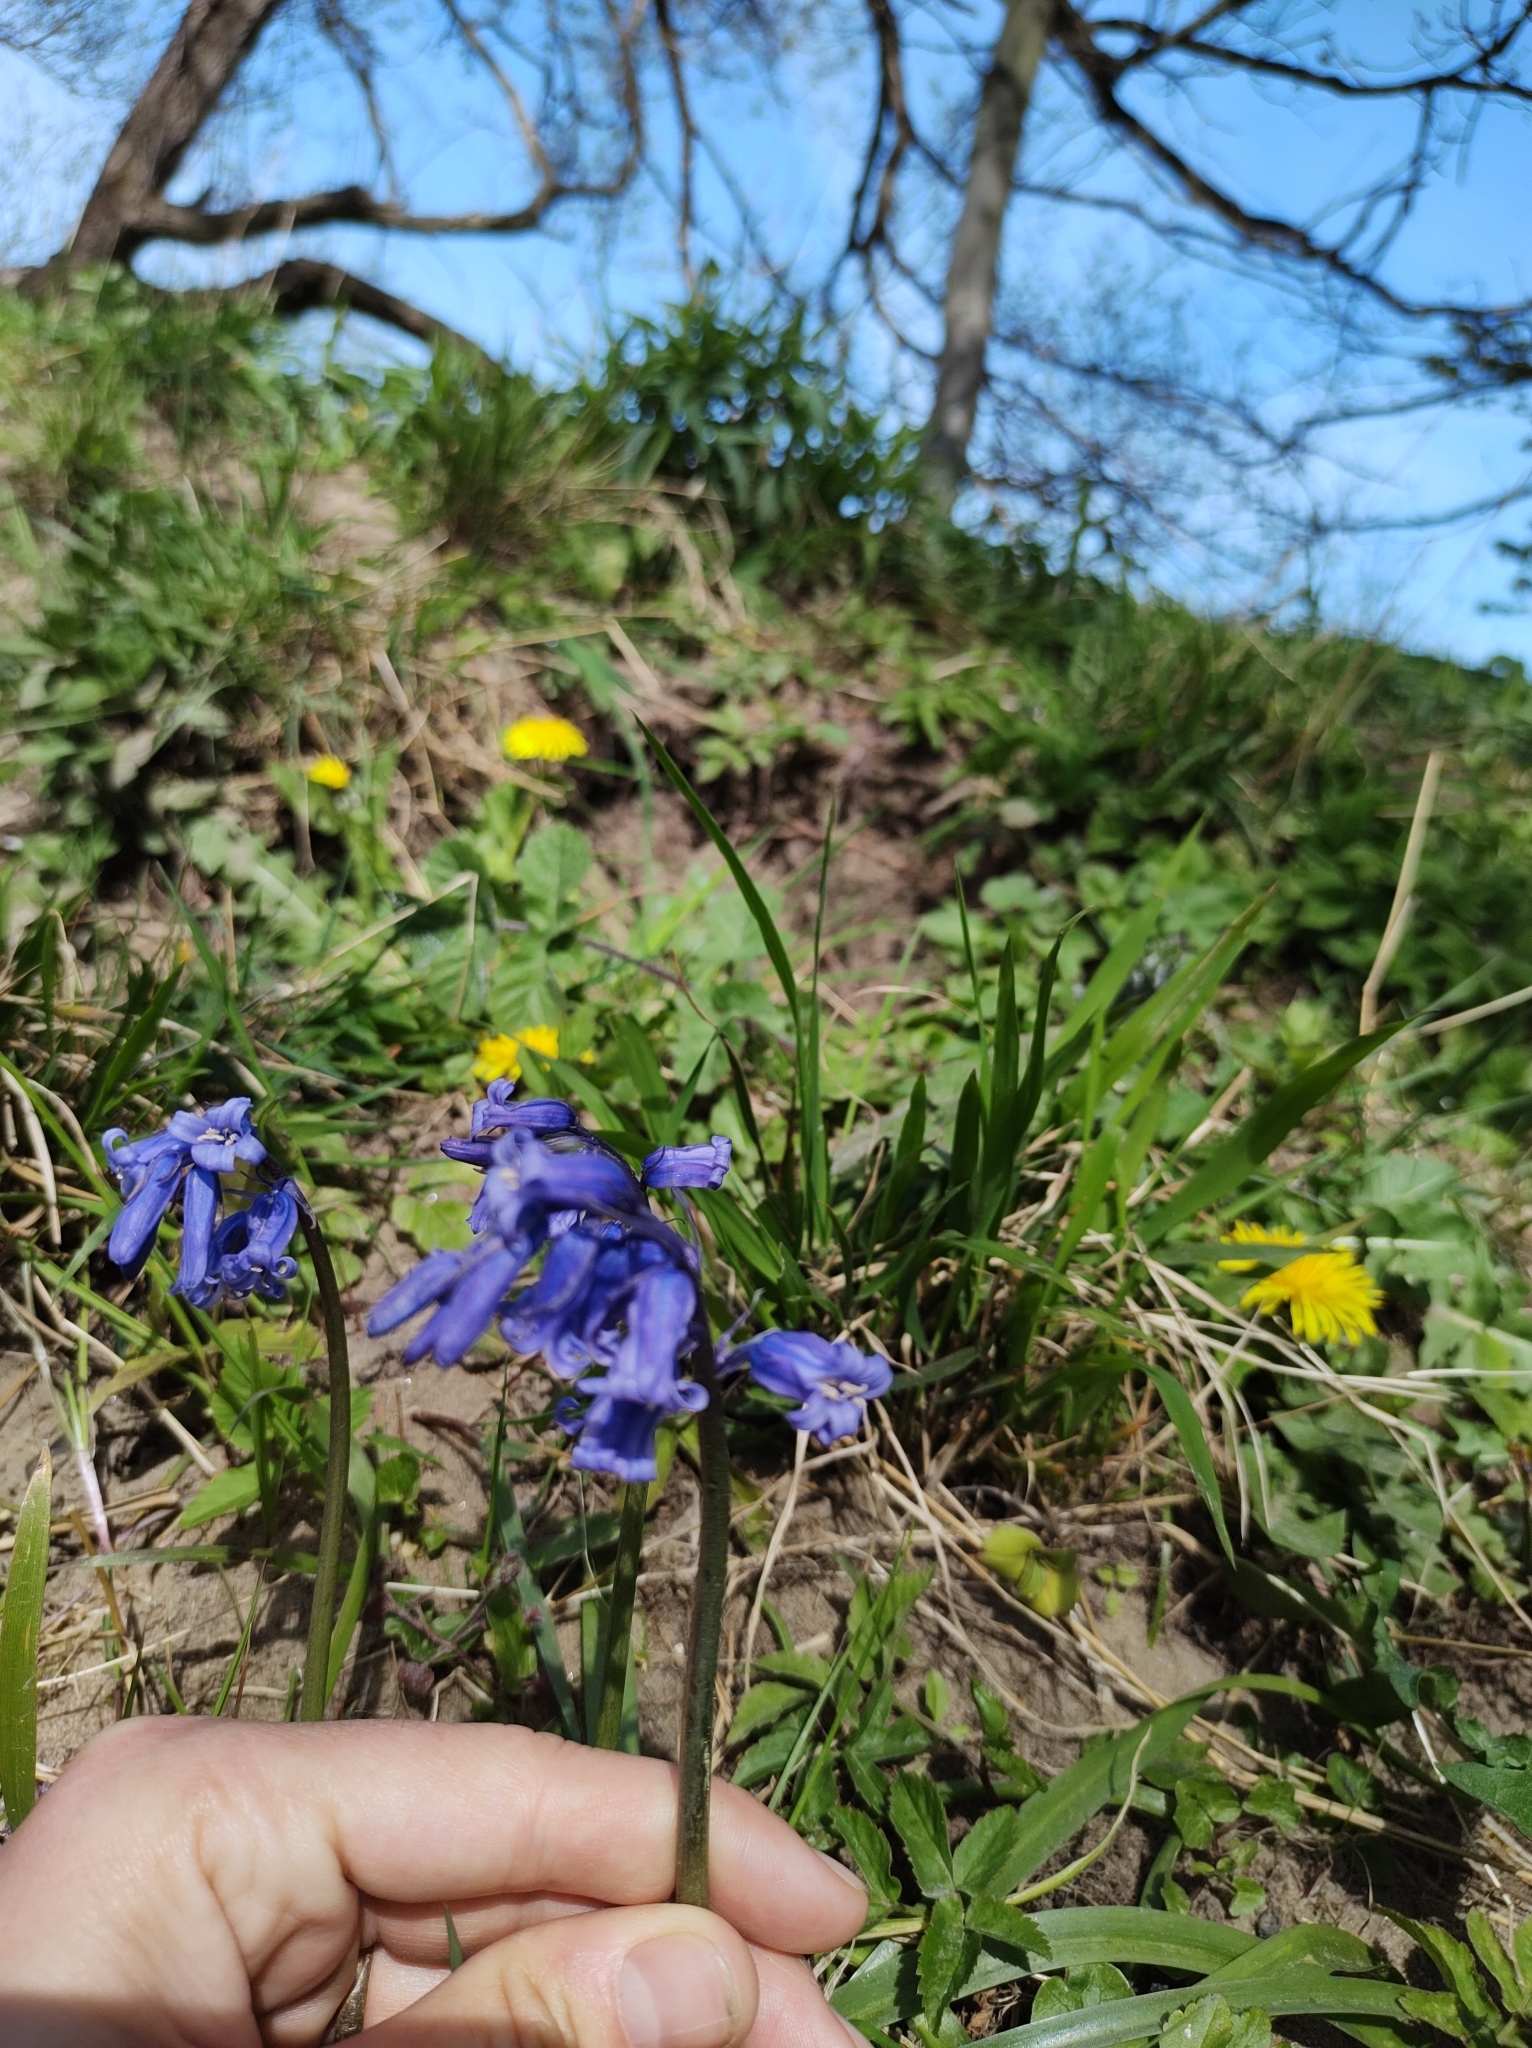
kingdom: Plantae
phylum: Tracheophyta
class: Liliopsida
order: Asparagales
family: Asparagaceae
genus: Hyacinthoides
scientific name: Hyacinthoides non-scripta
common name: Bluebell
